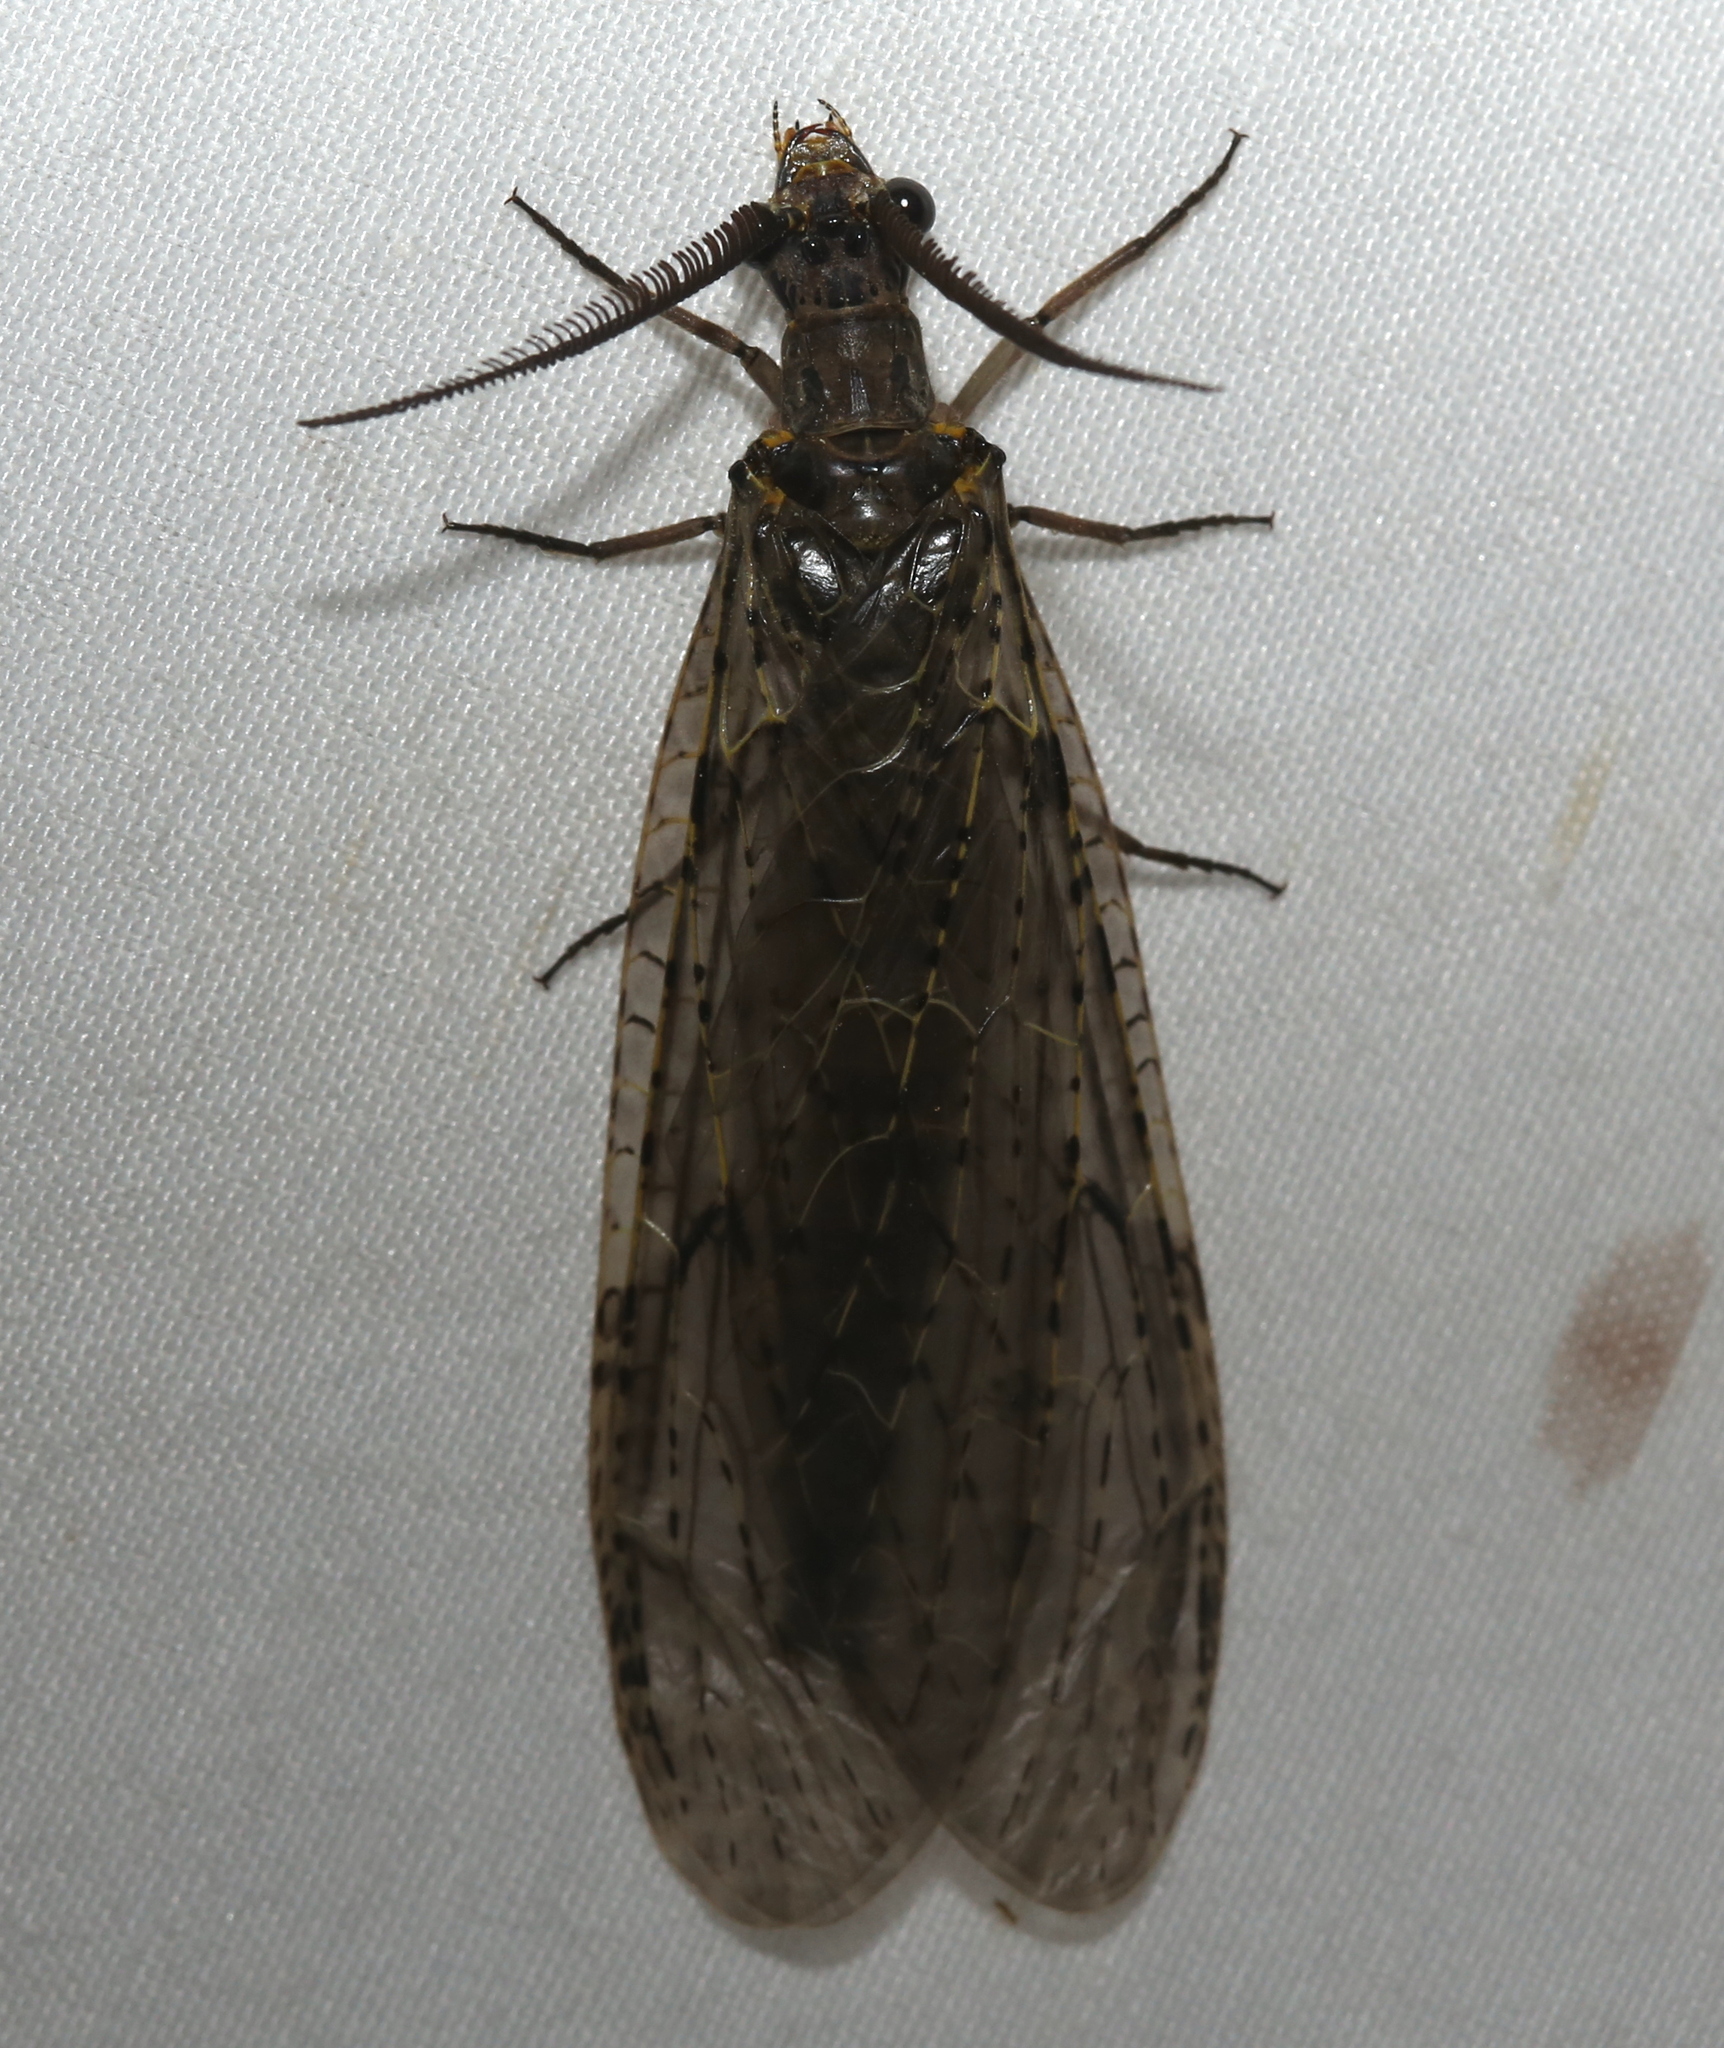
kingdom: Animalia
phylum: Arthropoda
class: Insecta
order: Megaloptera
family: Corydalidae
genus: Chauliodes
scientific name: Chauliodes rastricornis
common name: Spring fishfly
